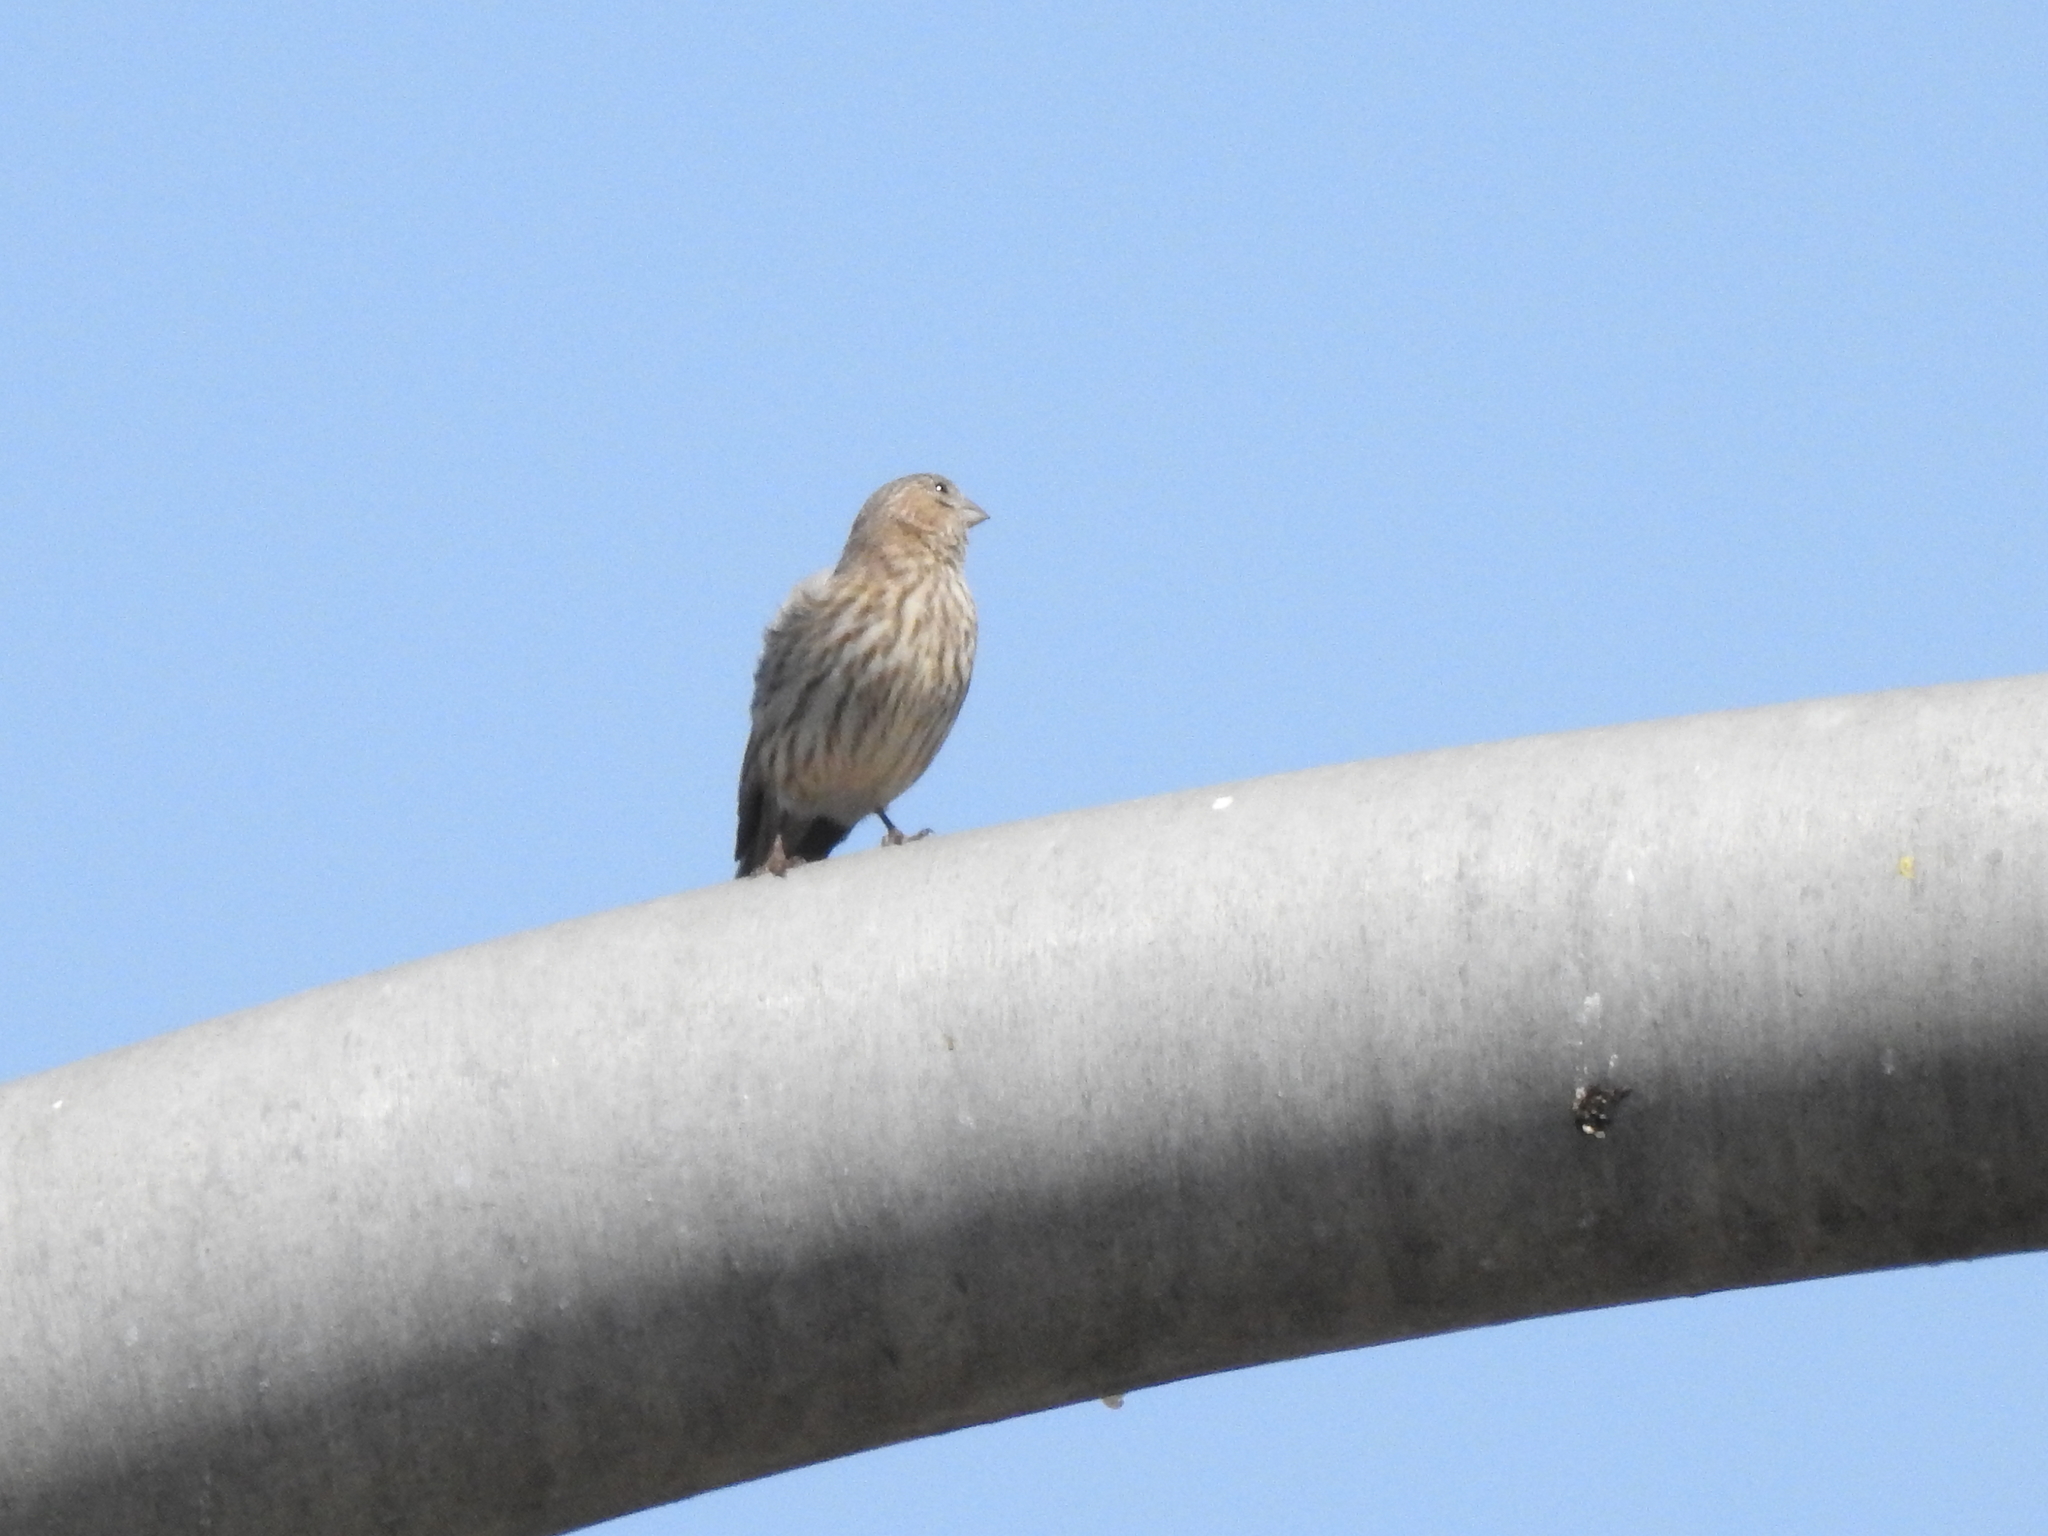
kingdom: Animalia
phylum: Chordata
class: Aves
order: Passeriformes
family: Fringillidae
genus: Haemorhous
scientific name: Haemorhous mexicanus
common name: House finch
